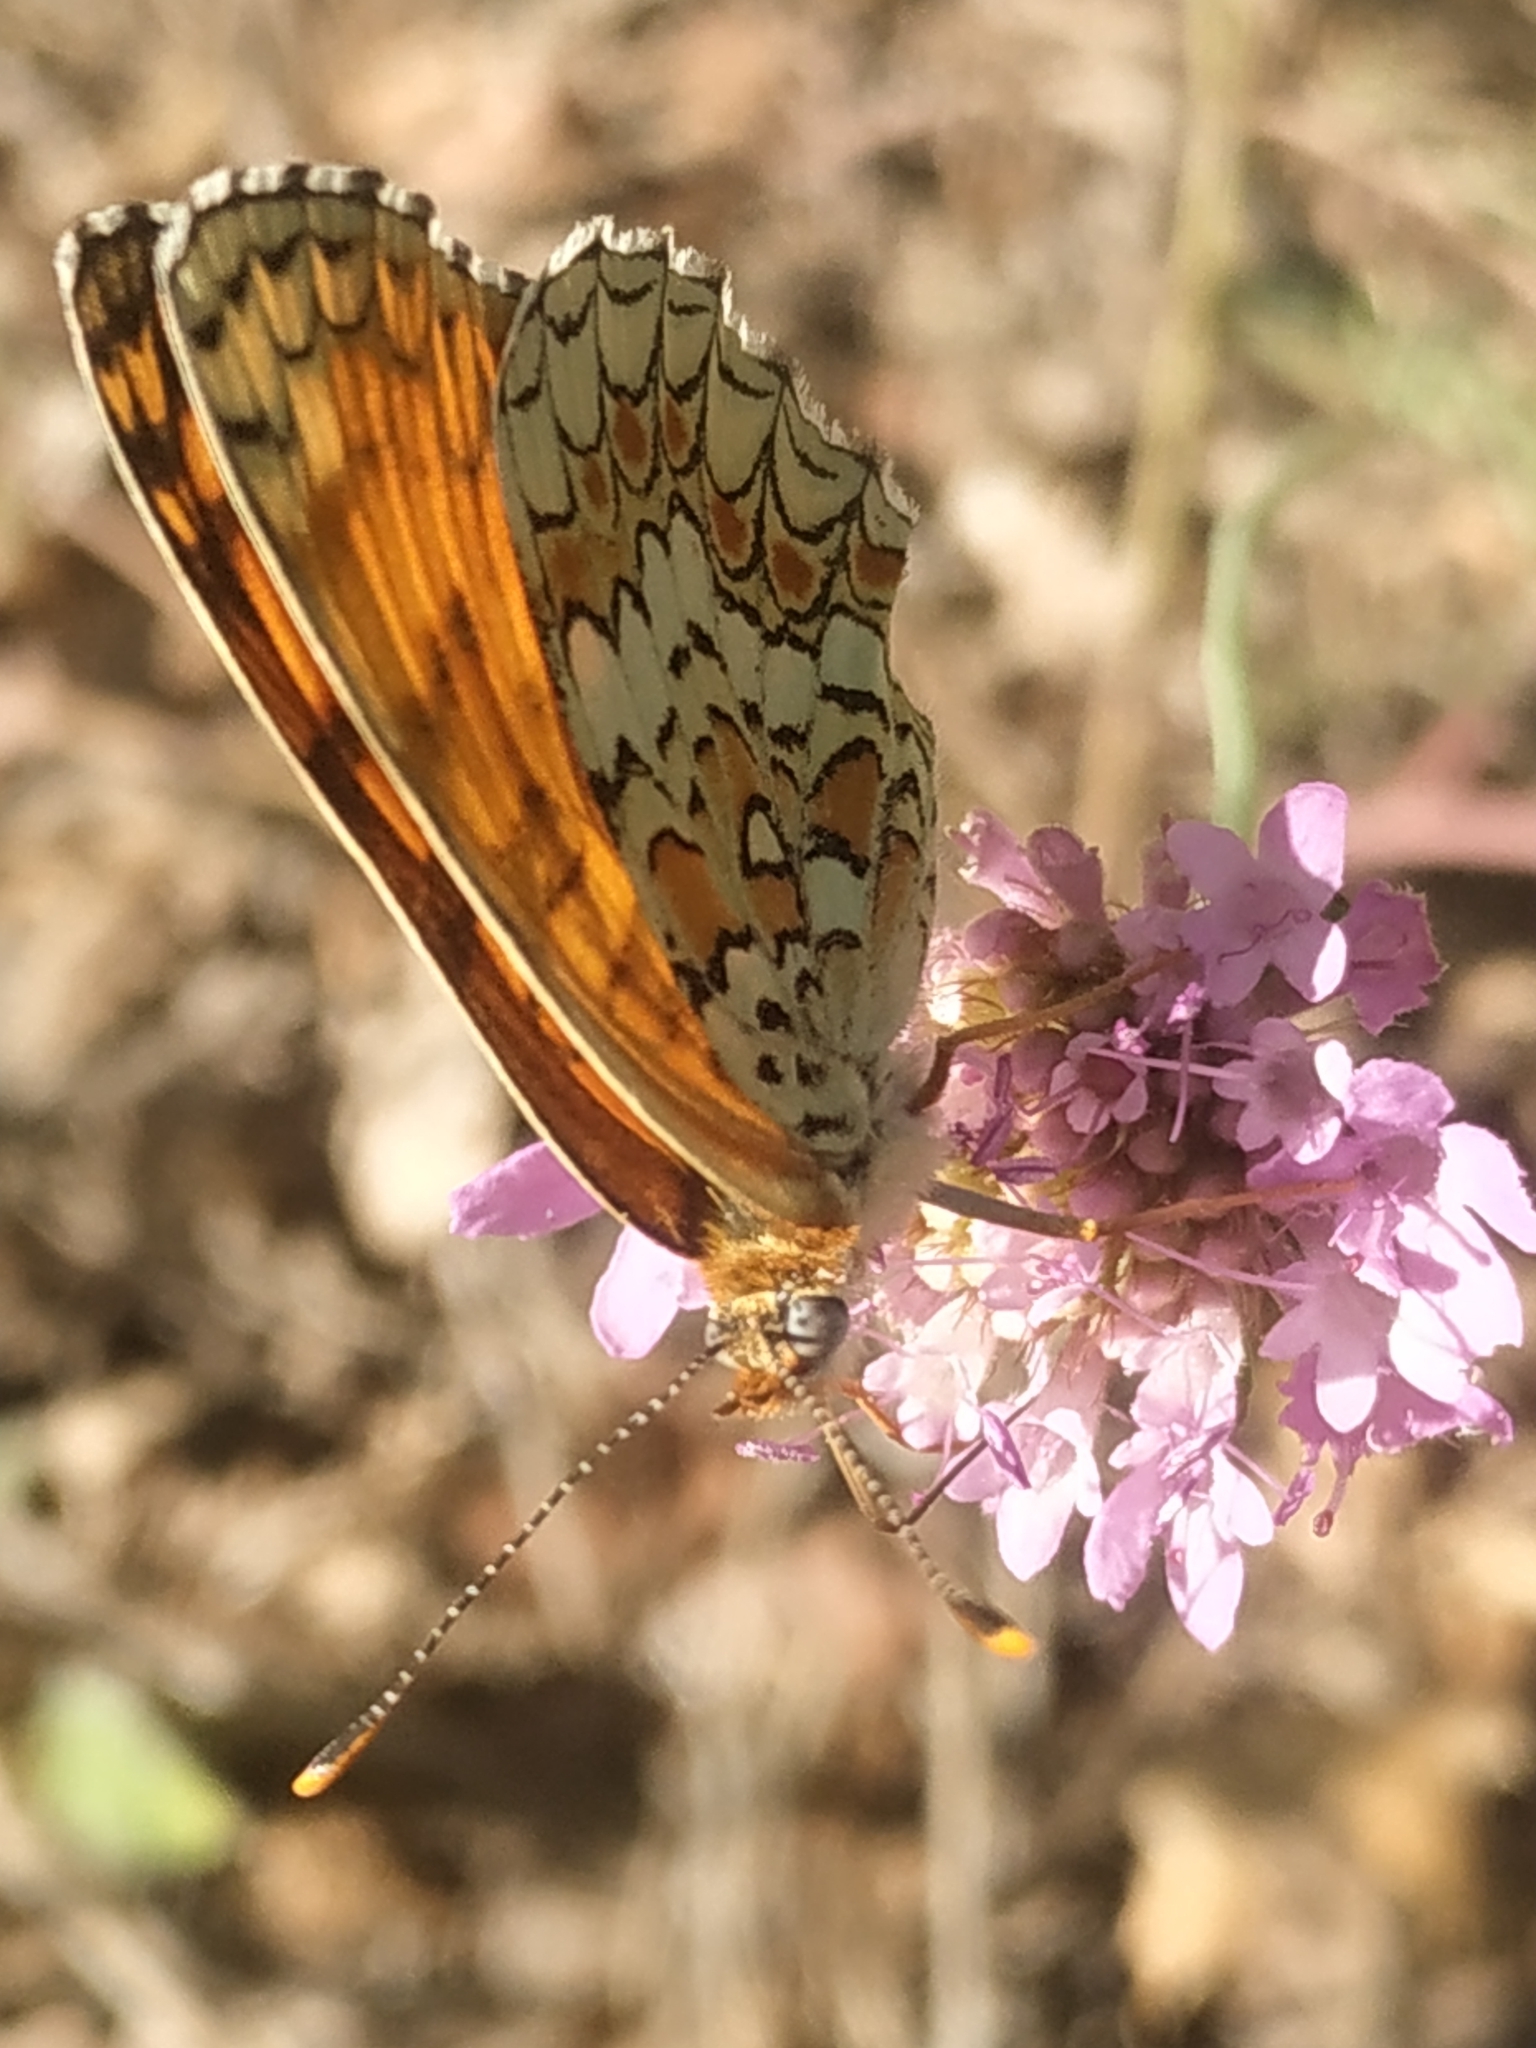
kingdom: Animalia
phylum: Arthropoda
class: Insecta
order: Lepidoptera
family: Nymphalidae
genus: Melitaea
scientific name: Melitaea phoebe
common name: Knapweed fritillary
